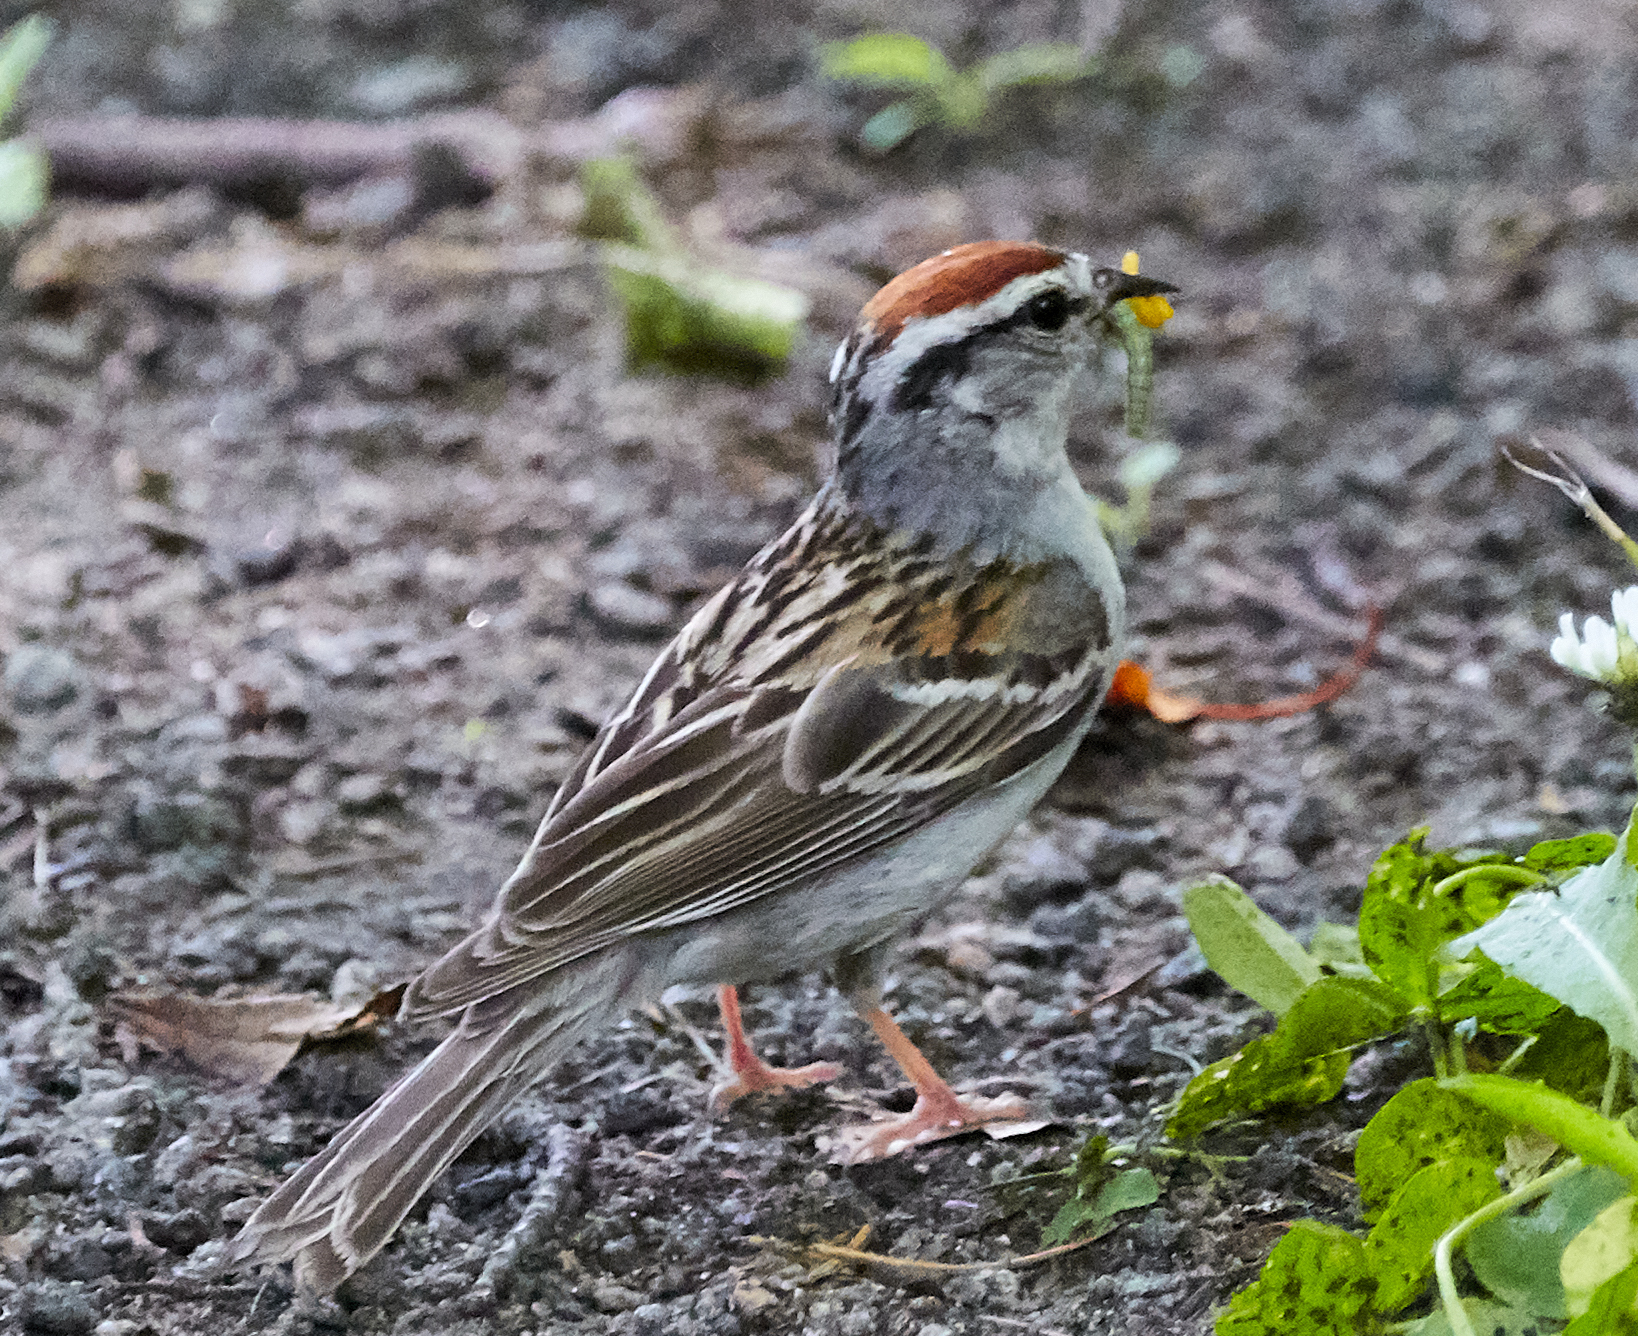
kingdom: Animalia
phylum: Chordata
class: Aves
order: Passeriformes
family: Passerellidae
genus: Spizella
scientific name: Spizella passerina
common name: Chipping sparrow
